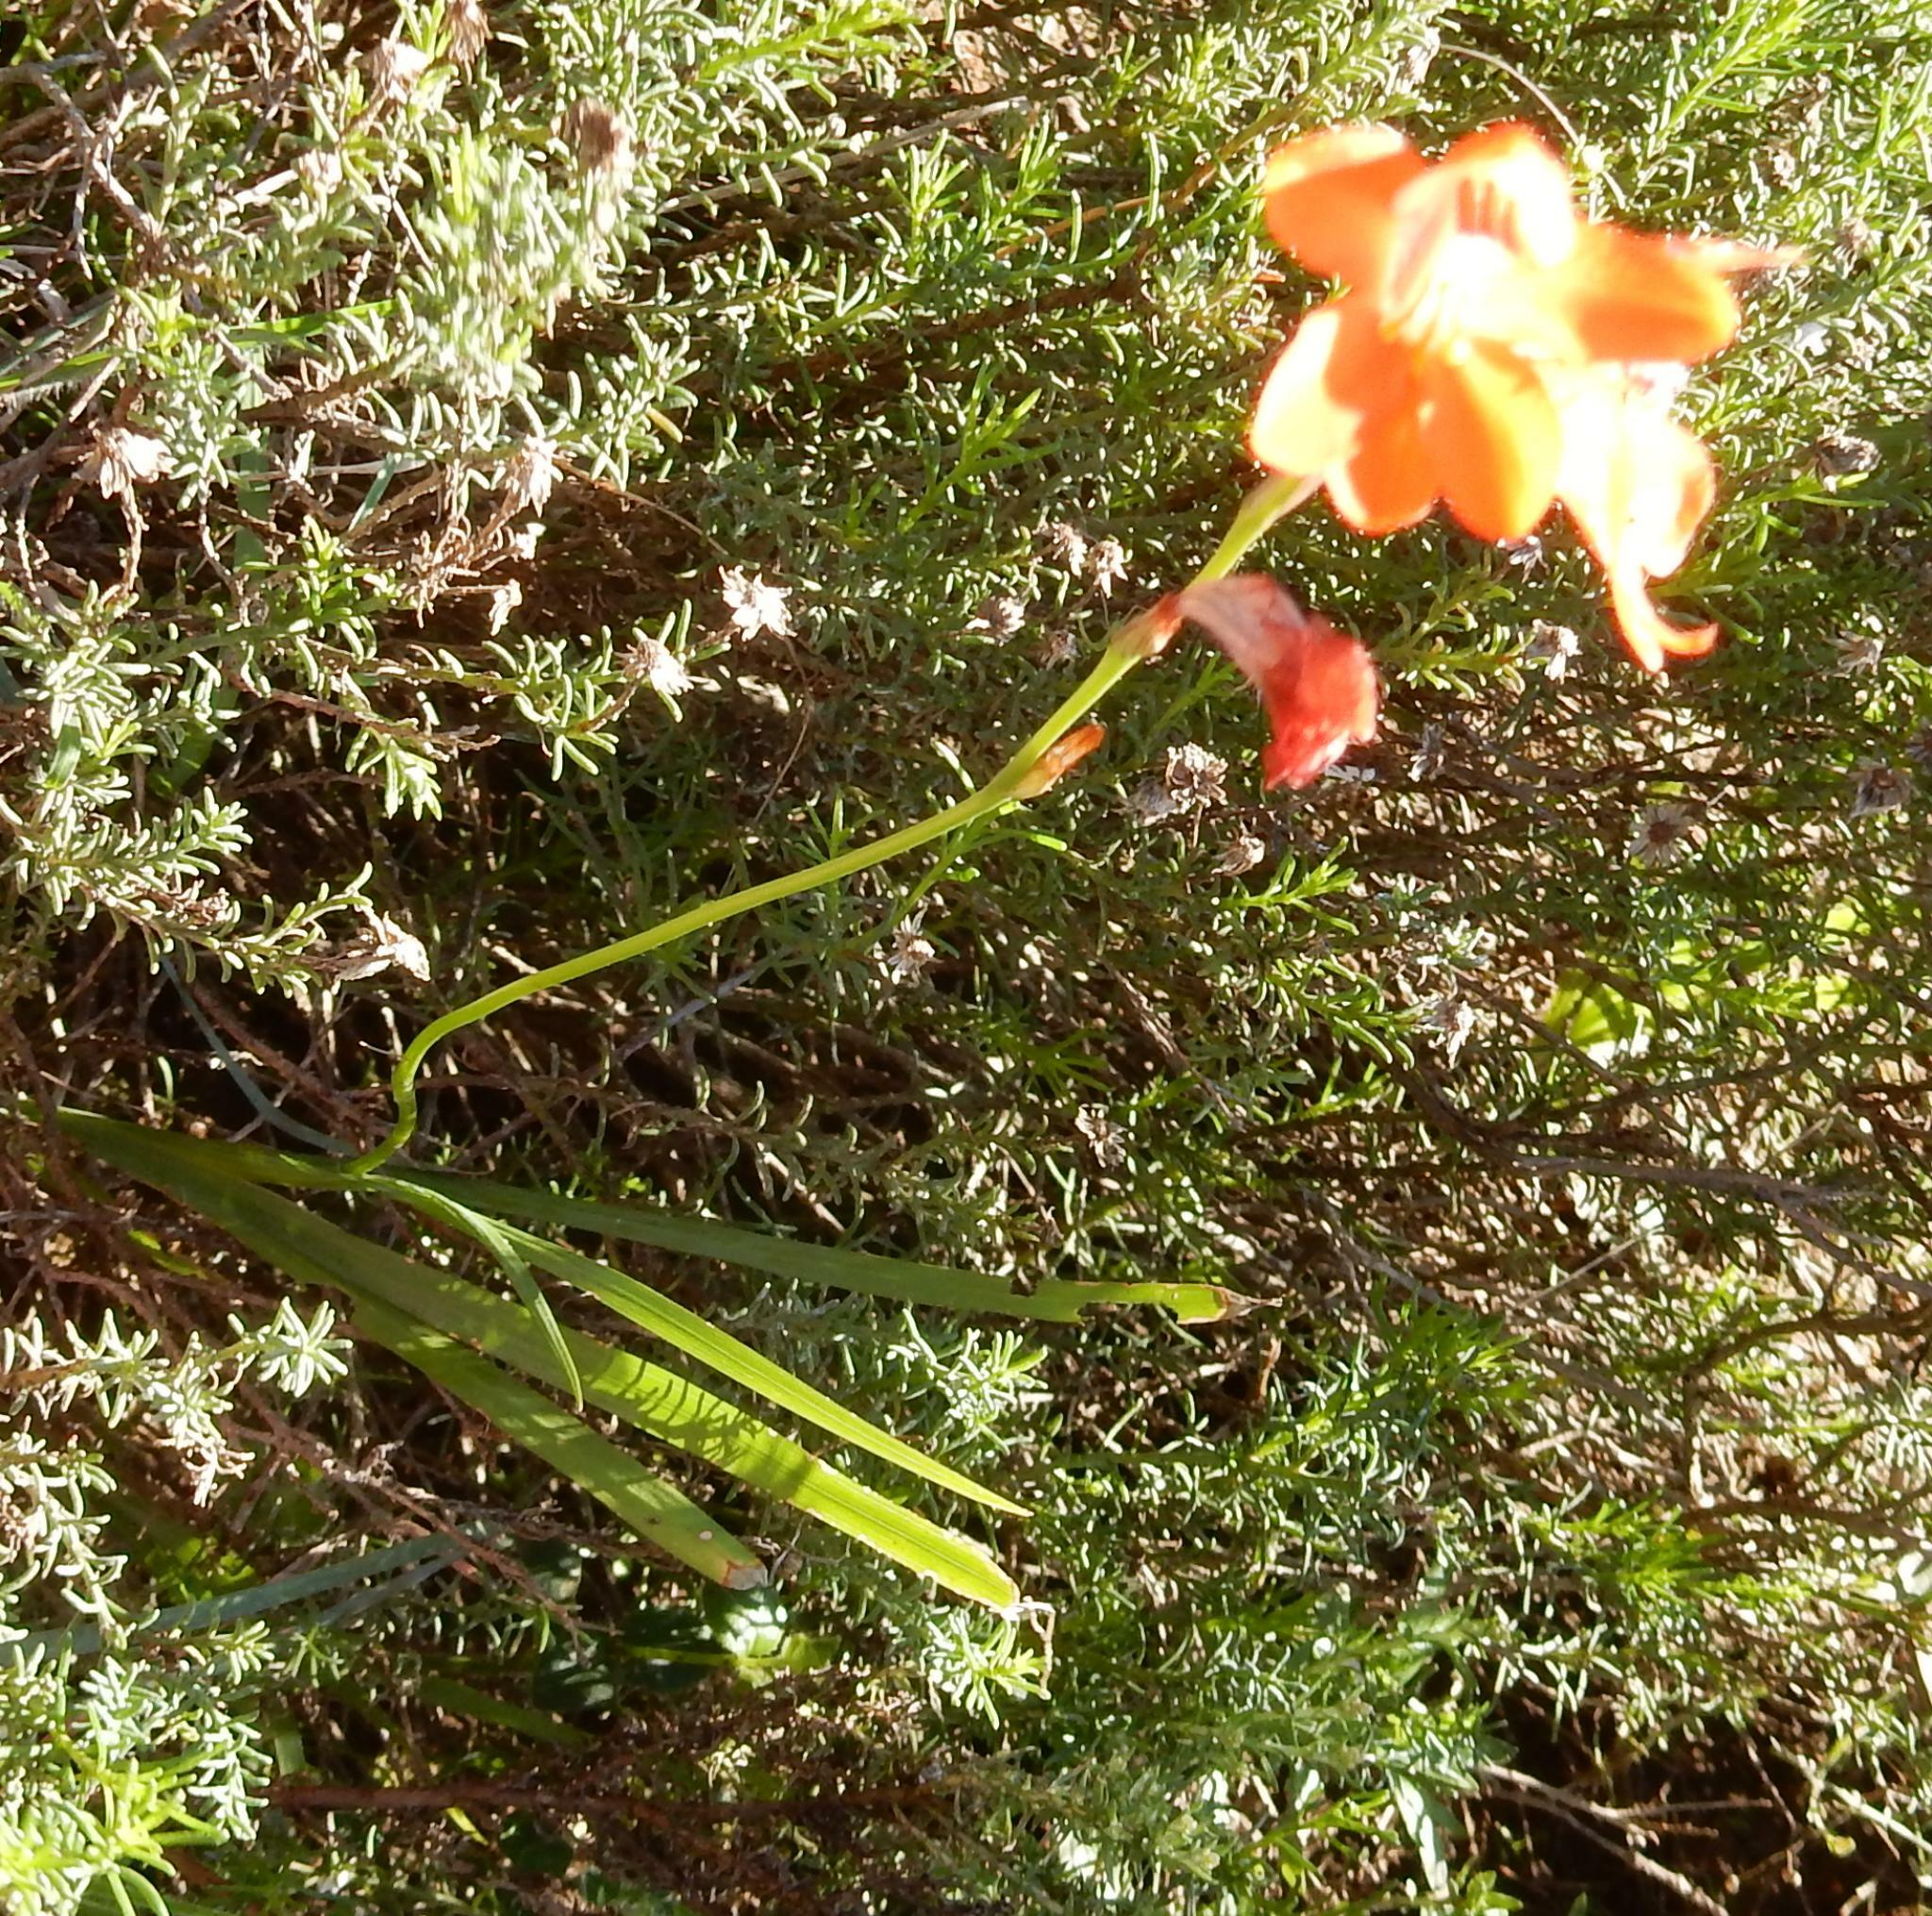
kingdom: Plantae
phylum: Tracheophyta
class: Liliopsida
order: Asparagales
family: Iridaceae
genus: Tritonia
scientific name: Tritonia laxifolia
